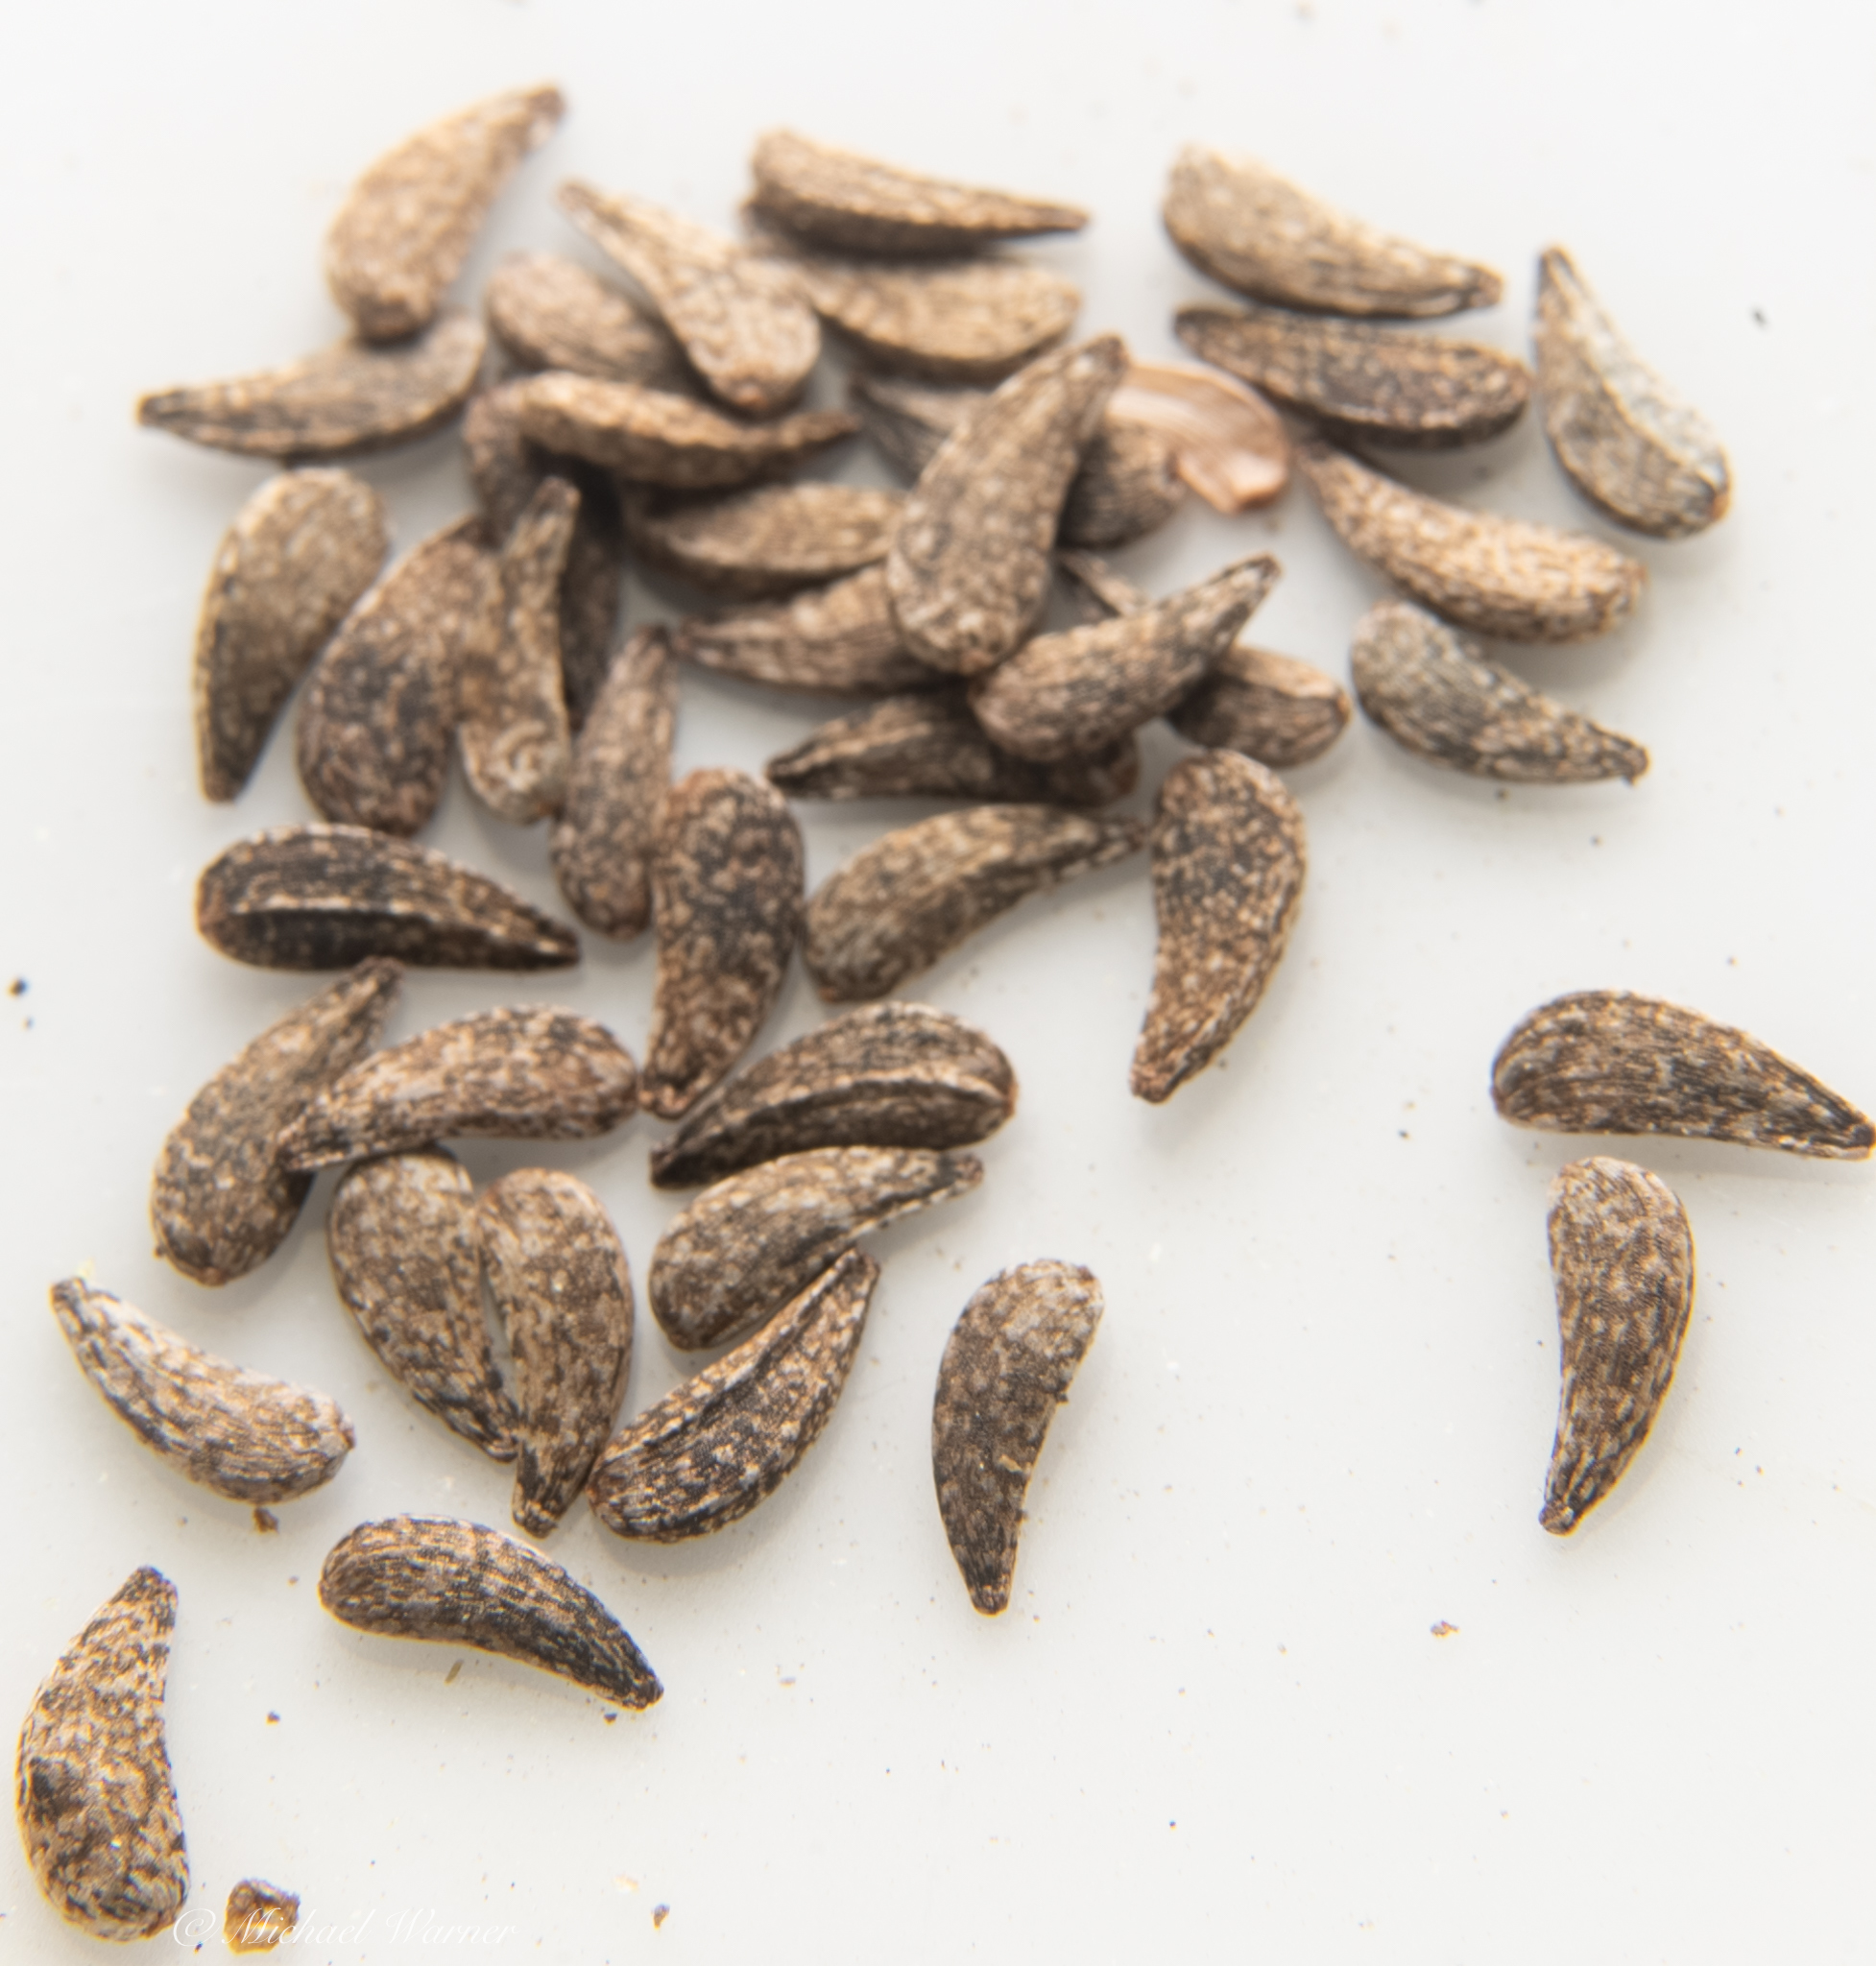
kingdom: Plantae
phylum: Tracheophyta
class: Magnoliopsida
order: Asterales
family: Asteraceae
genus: Madia
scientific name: Madia sativa
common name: Coast tarweed
